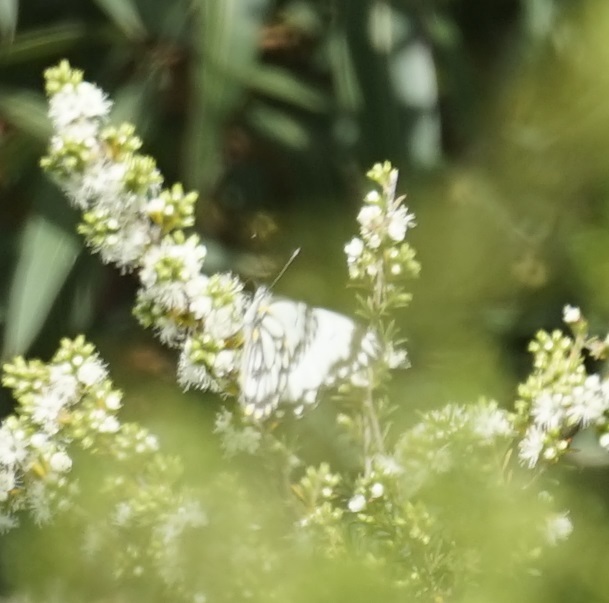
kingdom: Animalia
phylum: Arthropoda
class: Insecta
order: Lepidoptera
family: Pieridae
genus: Belenois
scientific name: Belenois java
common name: Caper white
